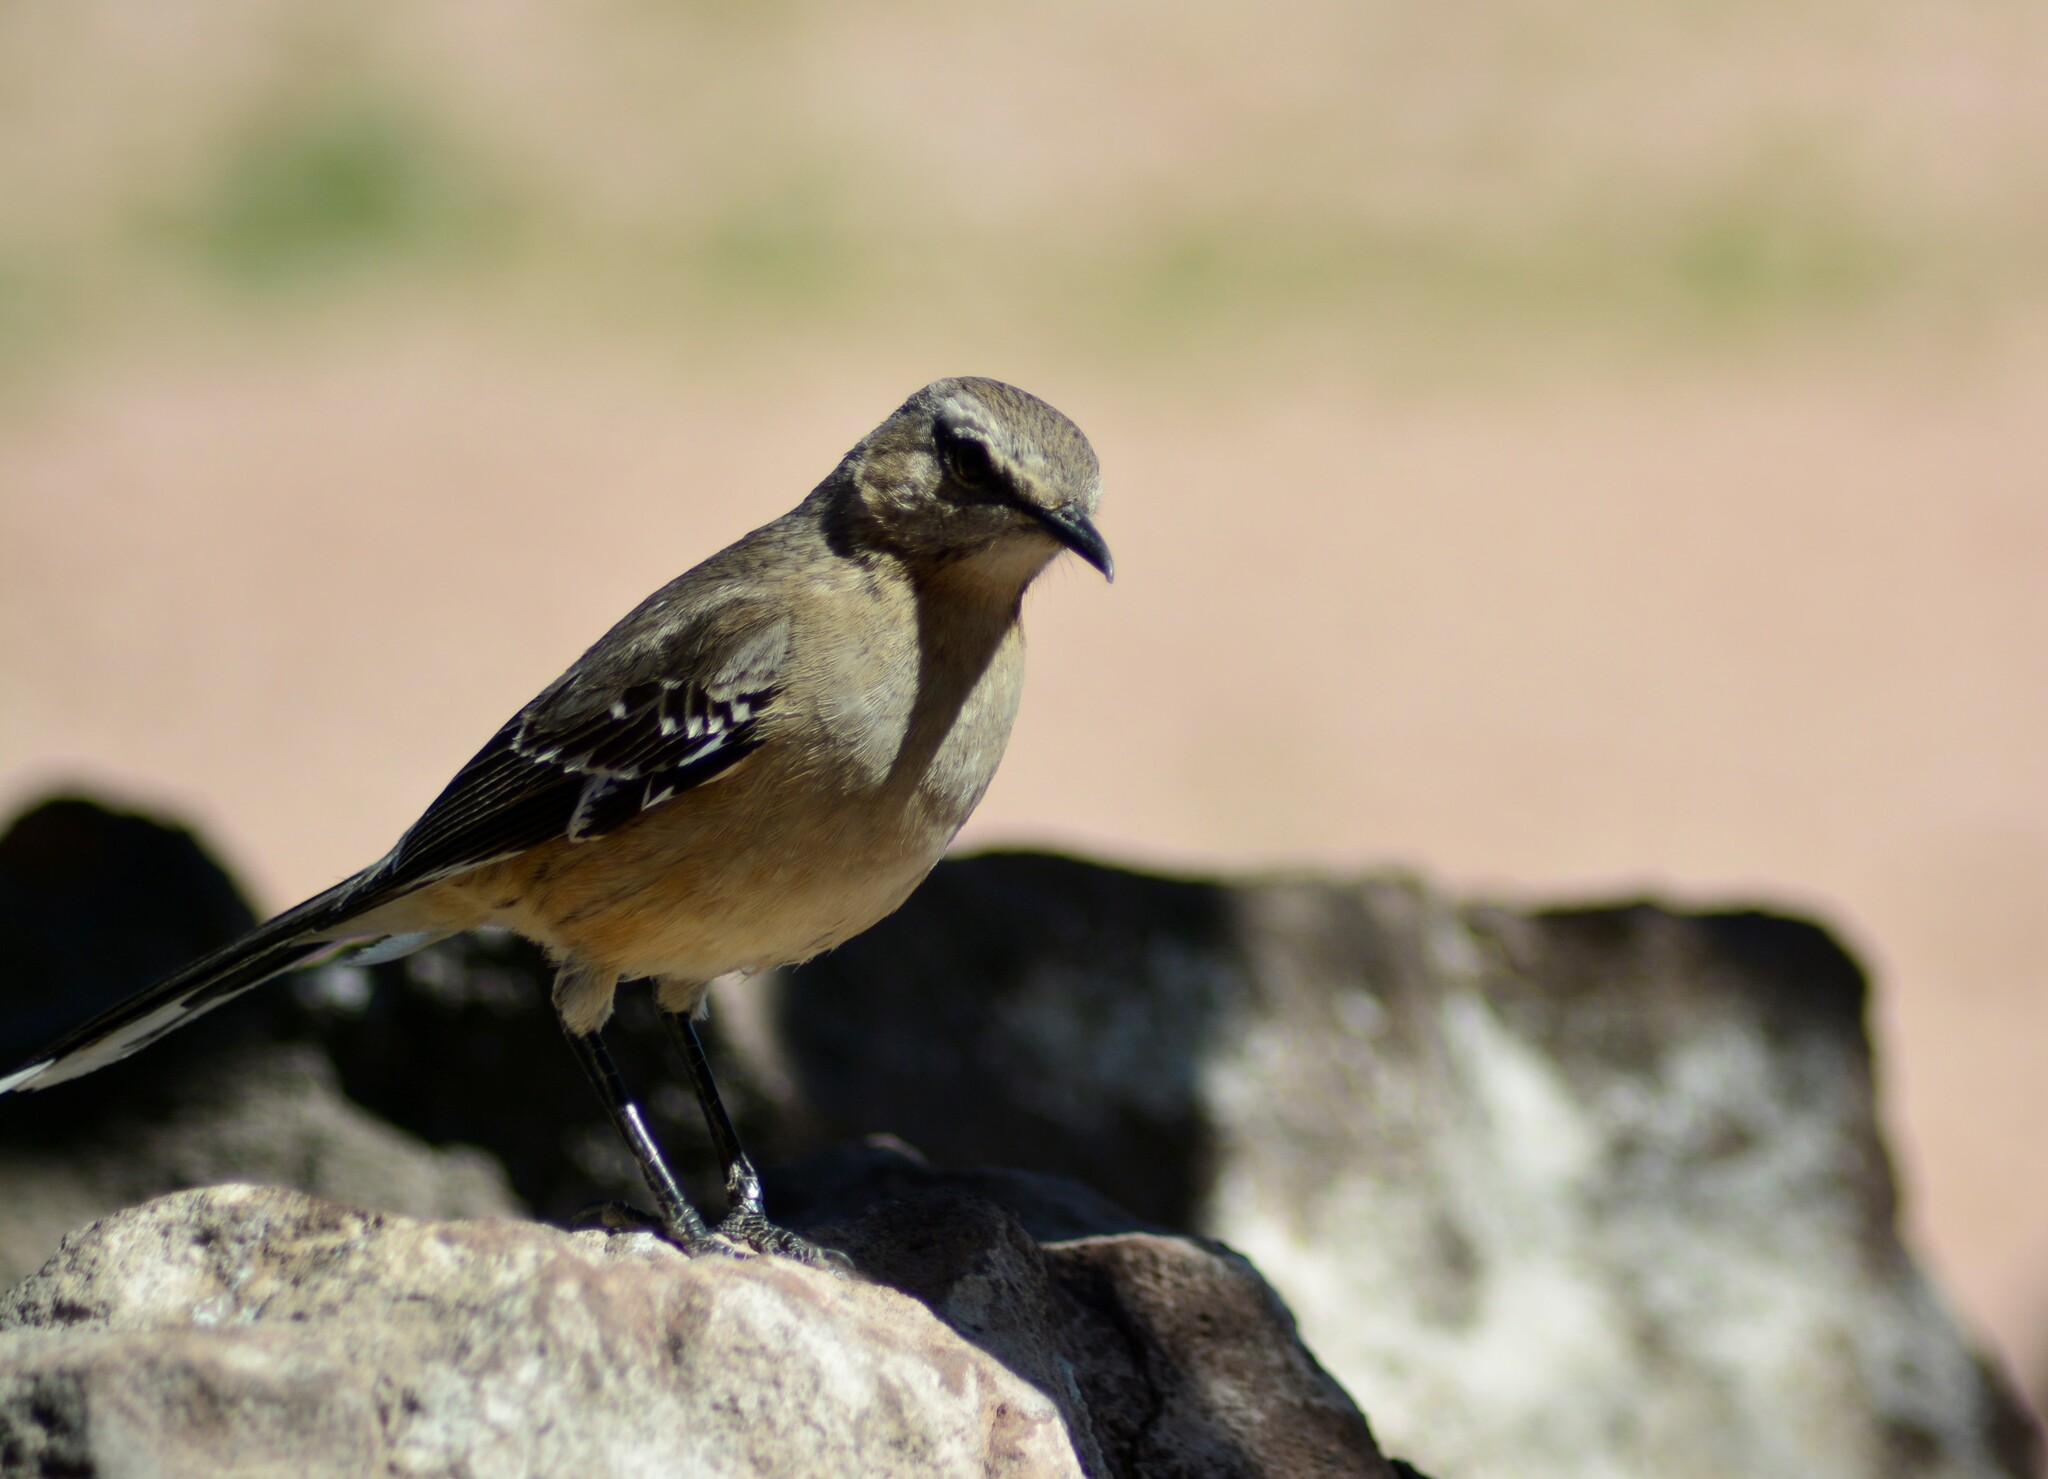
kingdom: Animalia
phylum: Chordata
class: Aves
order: Passeriformes
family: Mimidae
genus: Mimus
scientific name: Mimus patagonicus
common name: Patagonian mockingbird
